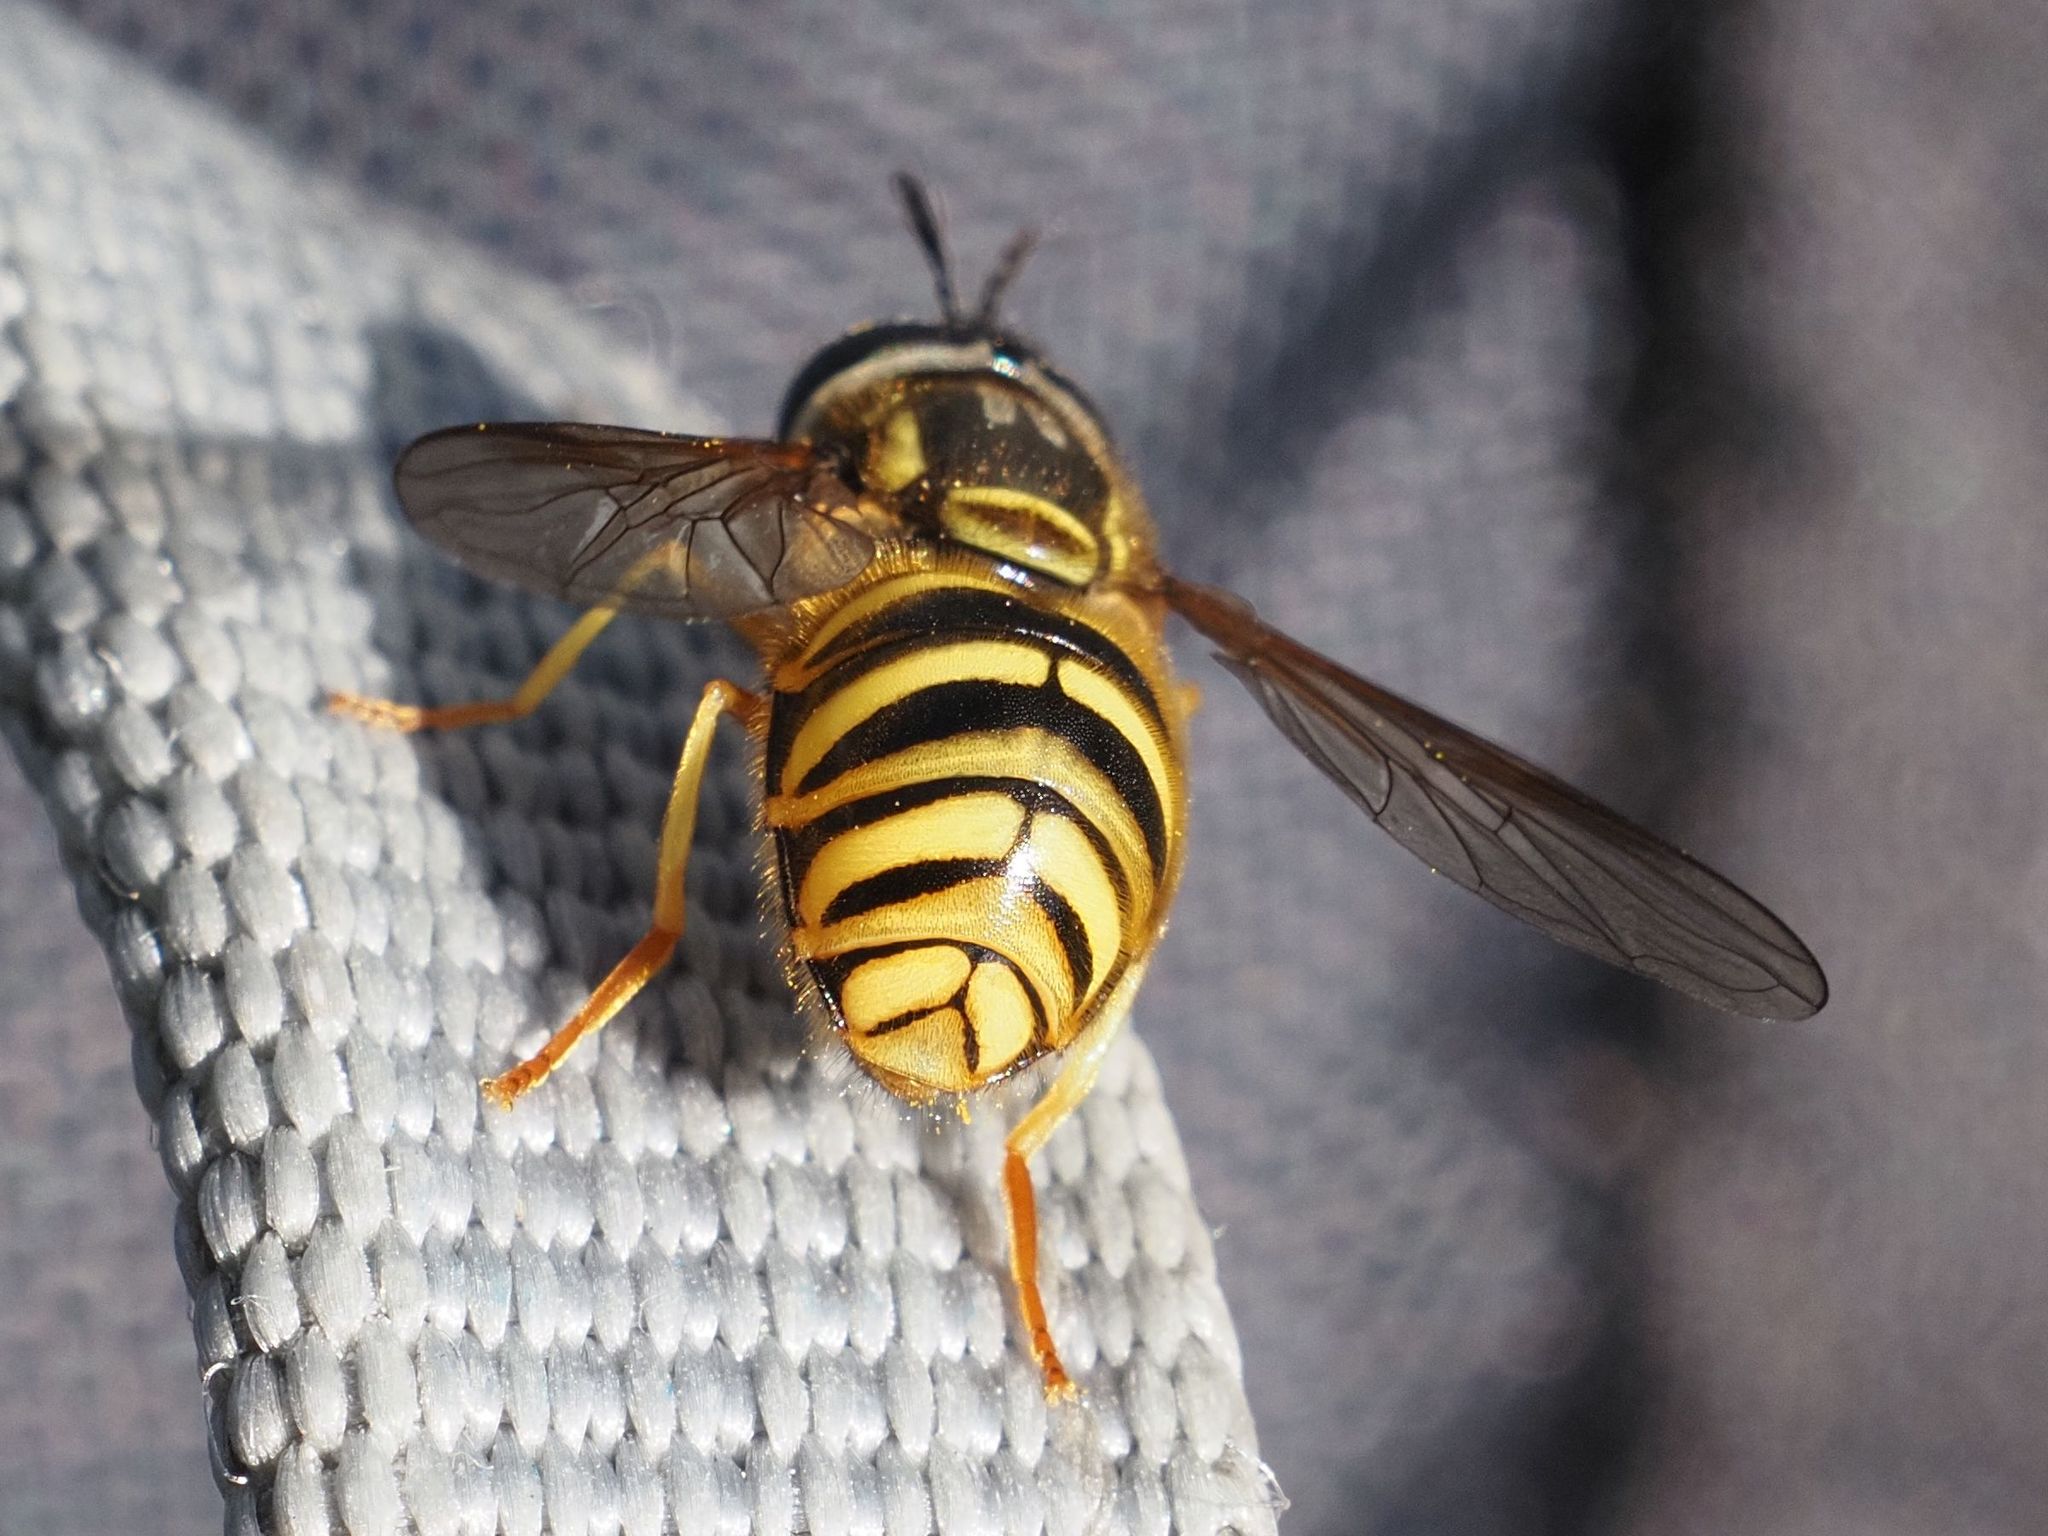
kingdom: Animalia
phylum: Arthropoda
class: Insecta
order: Diptera
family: Syrphidae
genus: Chrysotoxum
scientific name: Chrysotoxum arcuatum
